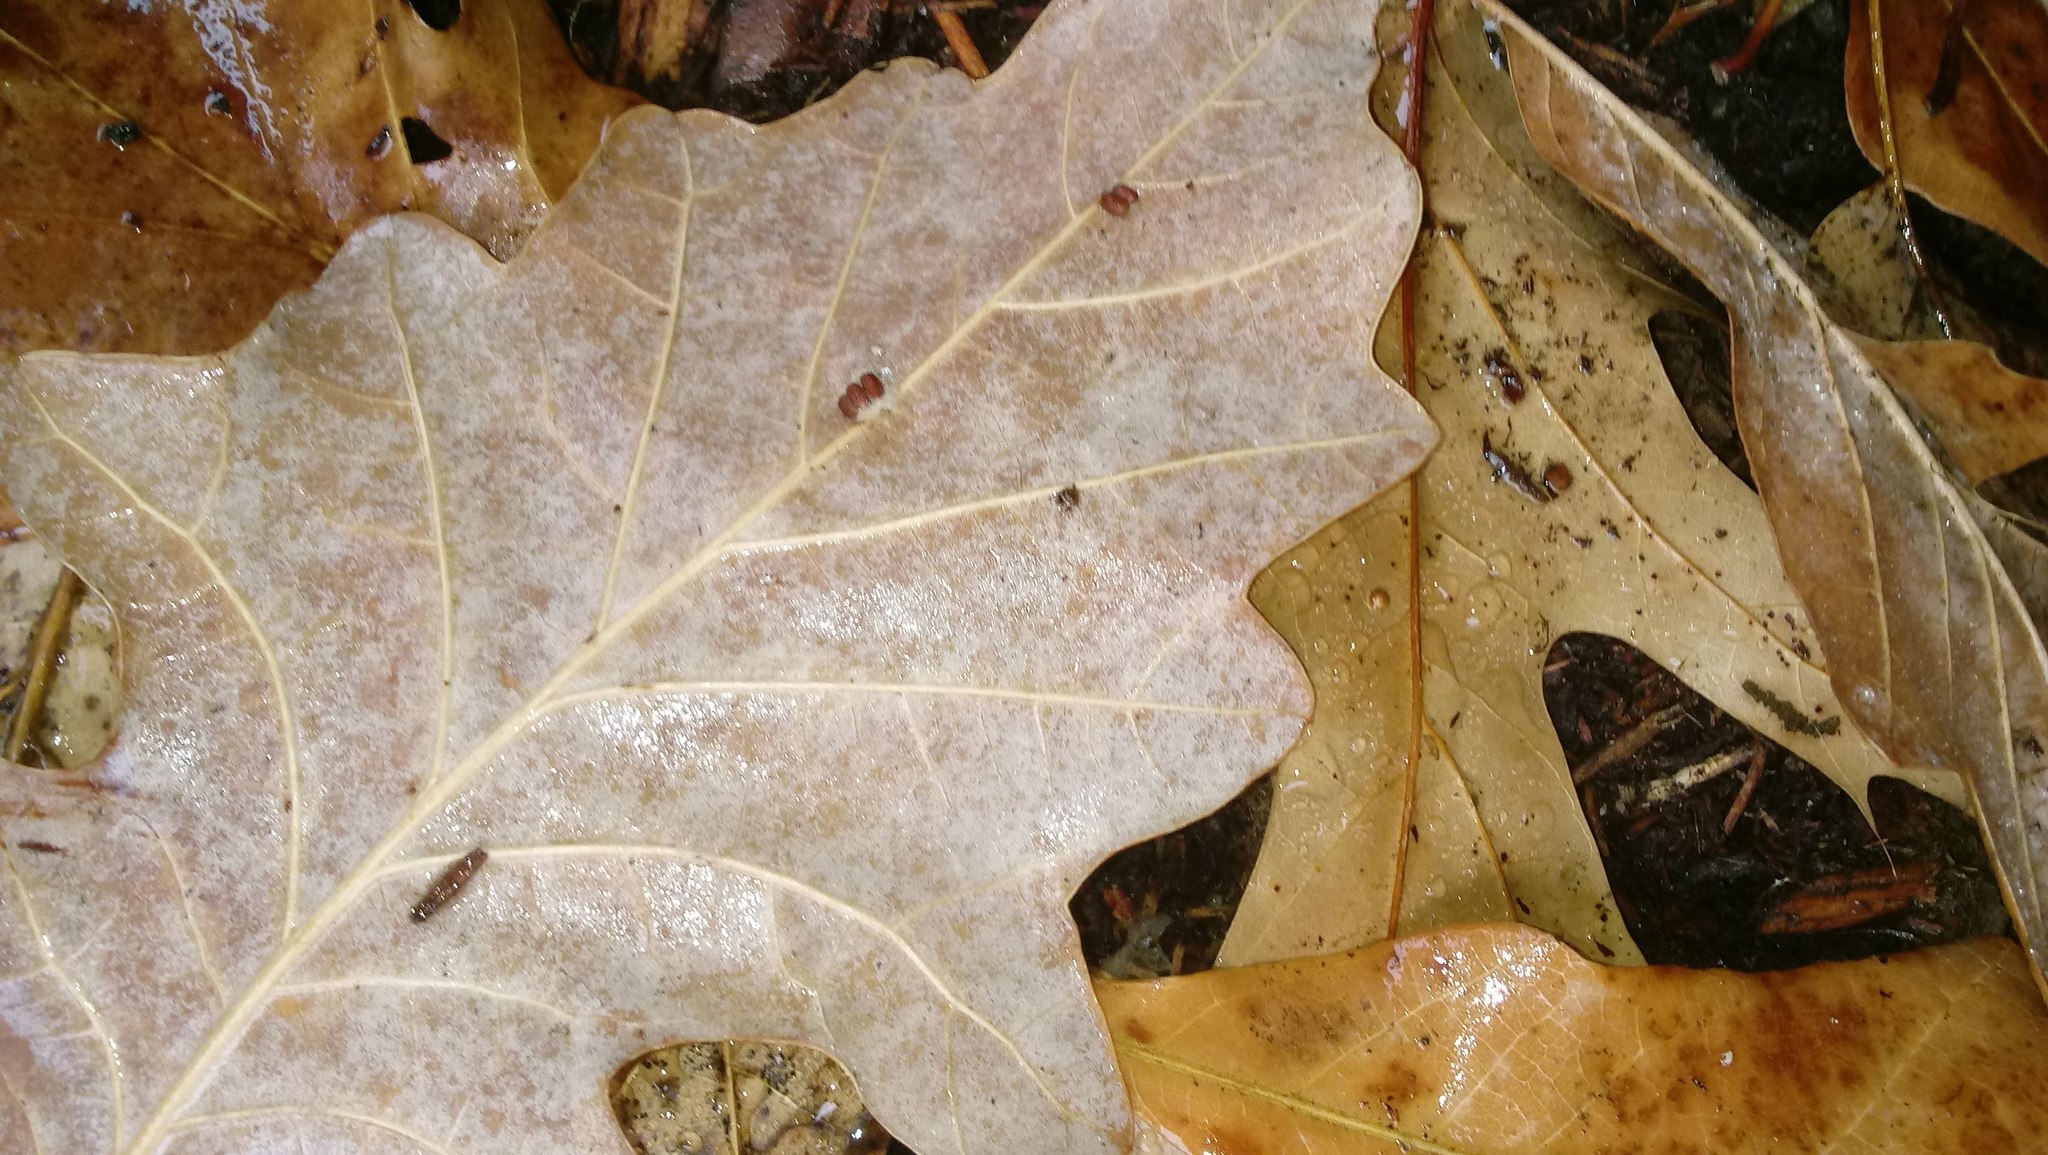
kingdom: Animalia
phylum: Arthropoda
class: Insecta
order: Hymenoptera
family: Cynipidae
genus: Andricus
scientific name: Andricus Druon ignotum
